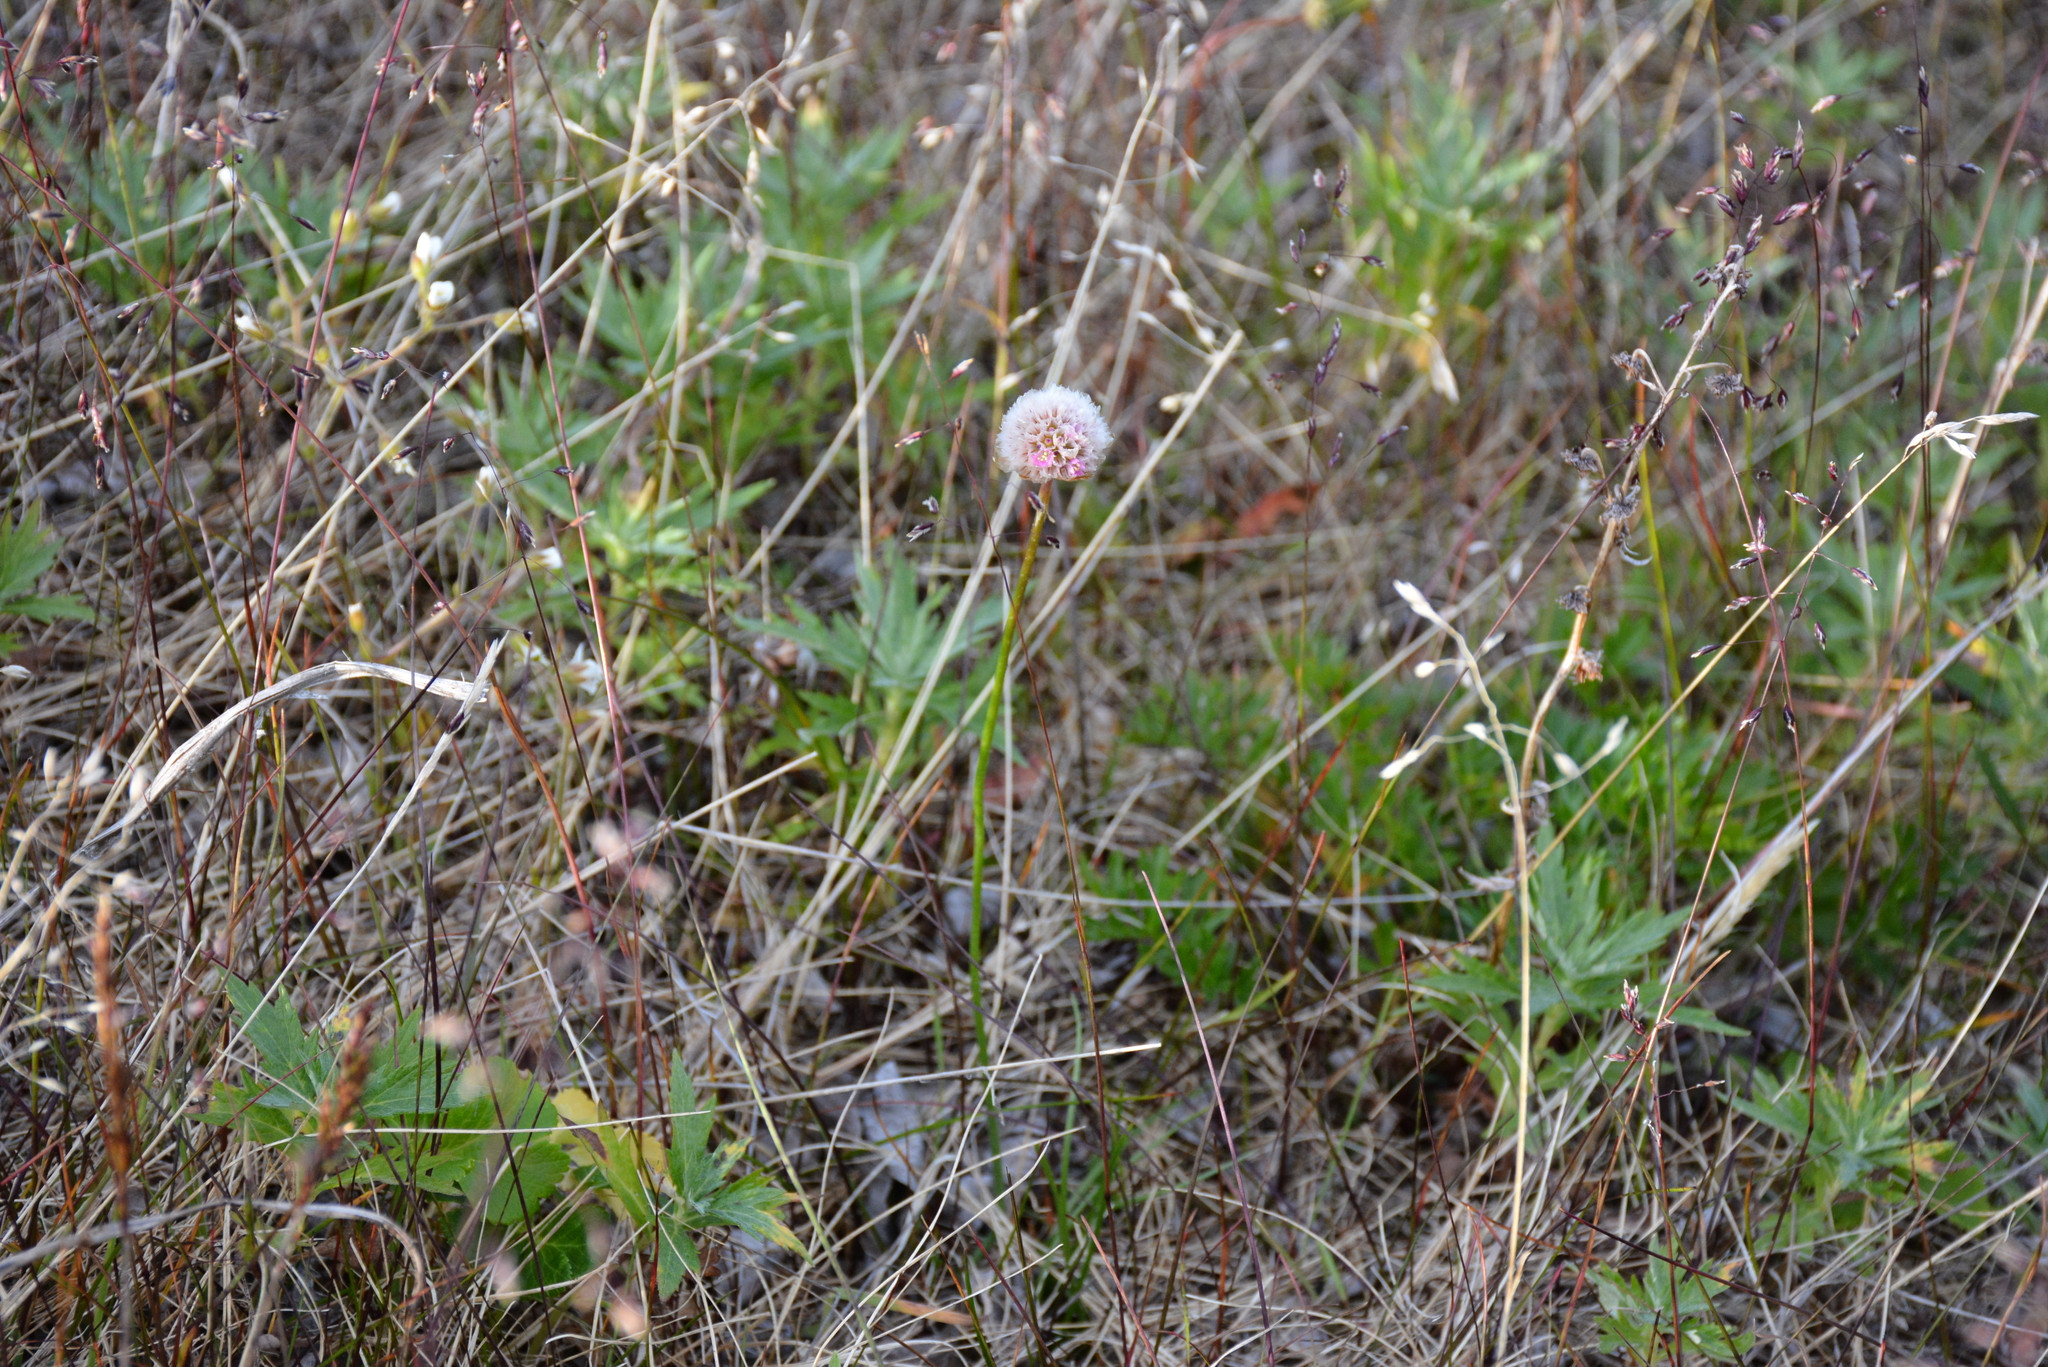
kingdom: Plantae
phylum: Tracheophyta
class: Magnoliopsida
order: Caryophyllales
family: Plumbaginaceae
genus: Armeria
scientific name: Armeria maritima
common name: Thrift
